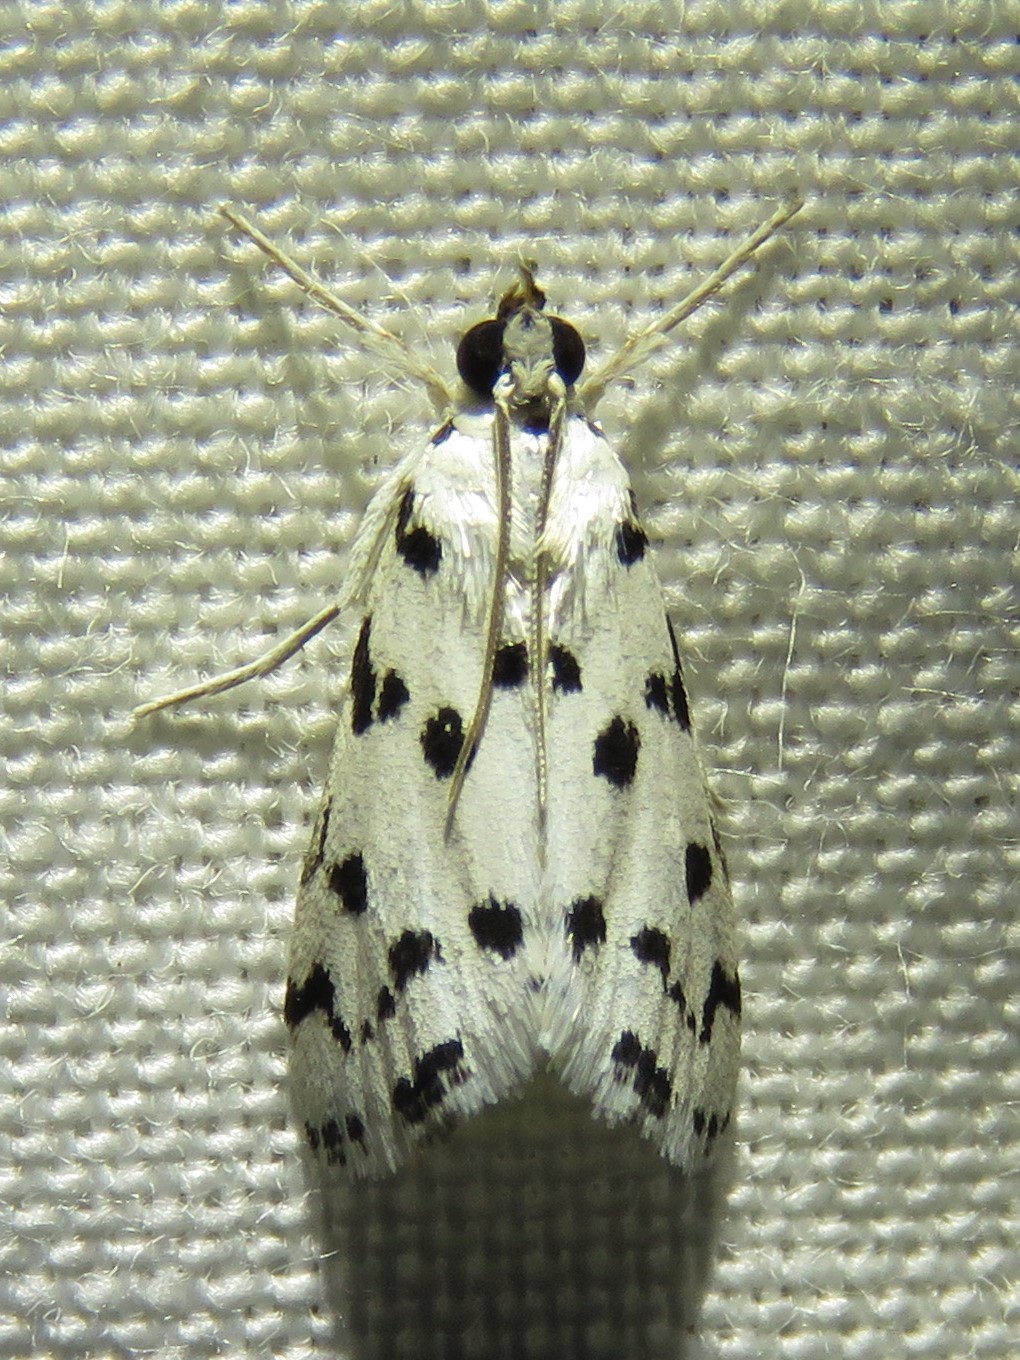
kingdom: Animalia
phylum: Arthropoda
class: Insecta
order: Lepidoptera
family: Crambidae
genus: Eustixia
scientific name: Eustixia pupula
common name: American cabbage pearl
